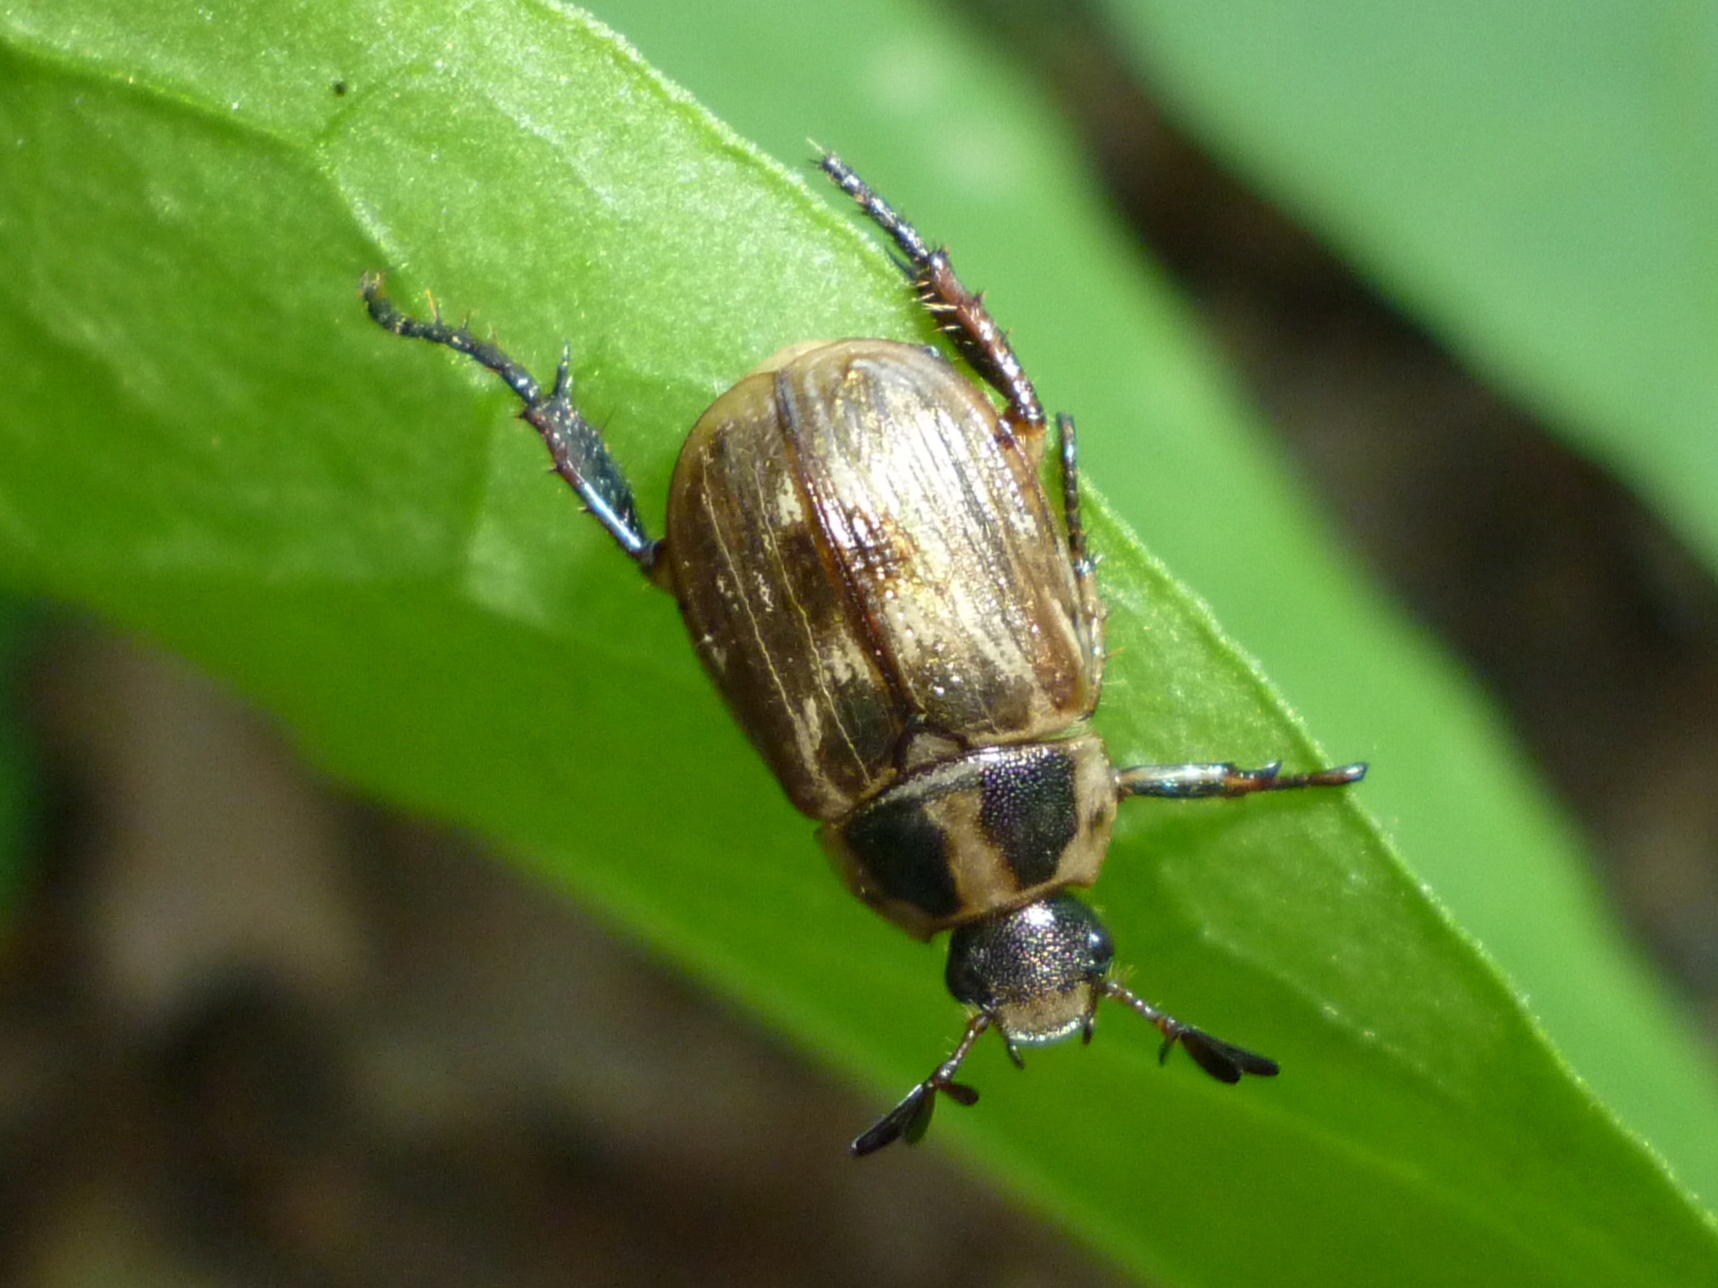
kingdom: Animalia
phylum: Arthropoda
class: Insecta
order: Coleoptera
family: Scarabaeidae
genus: Exomala
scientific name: Exomala orientalis
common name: Oriental beetle
